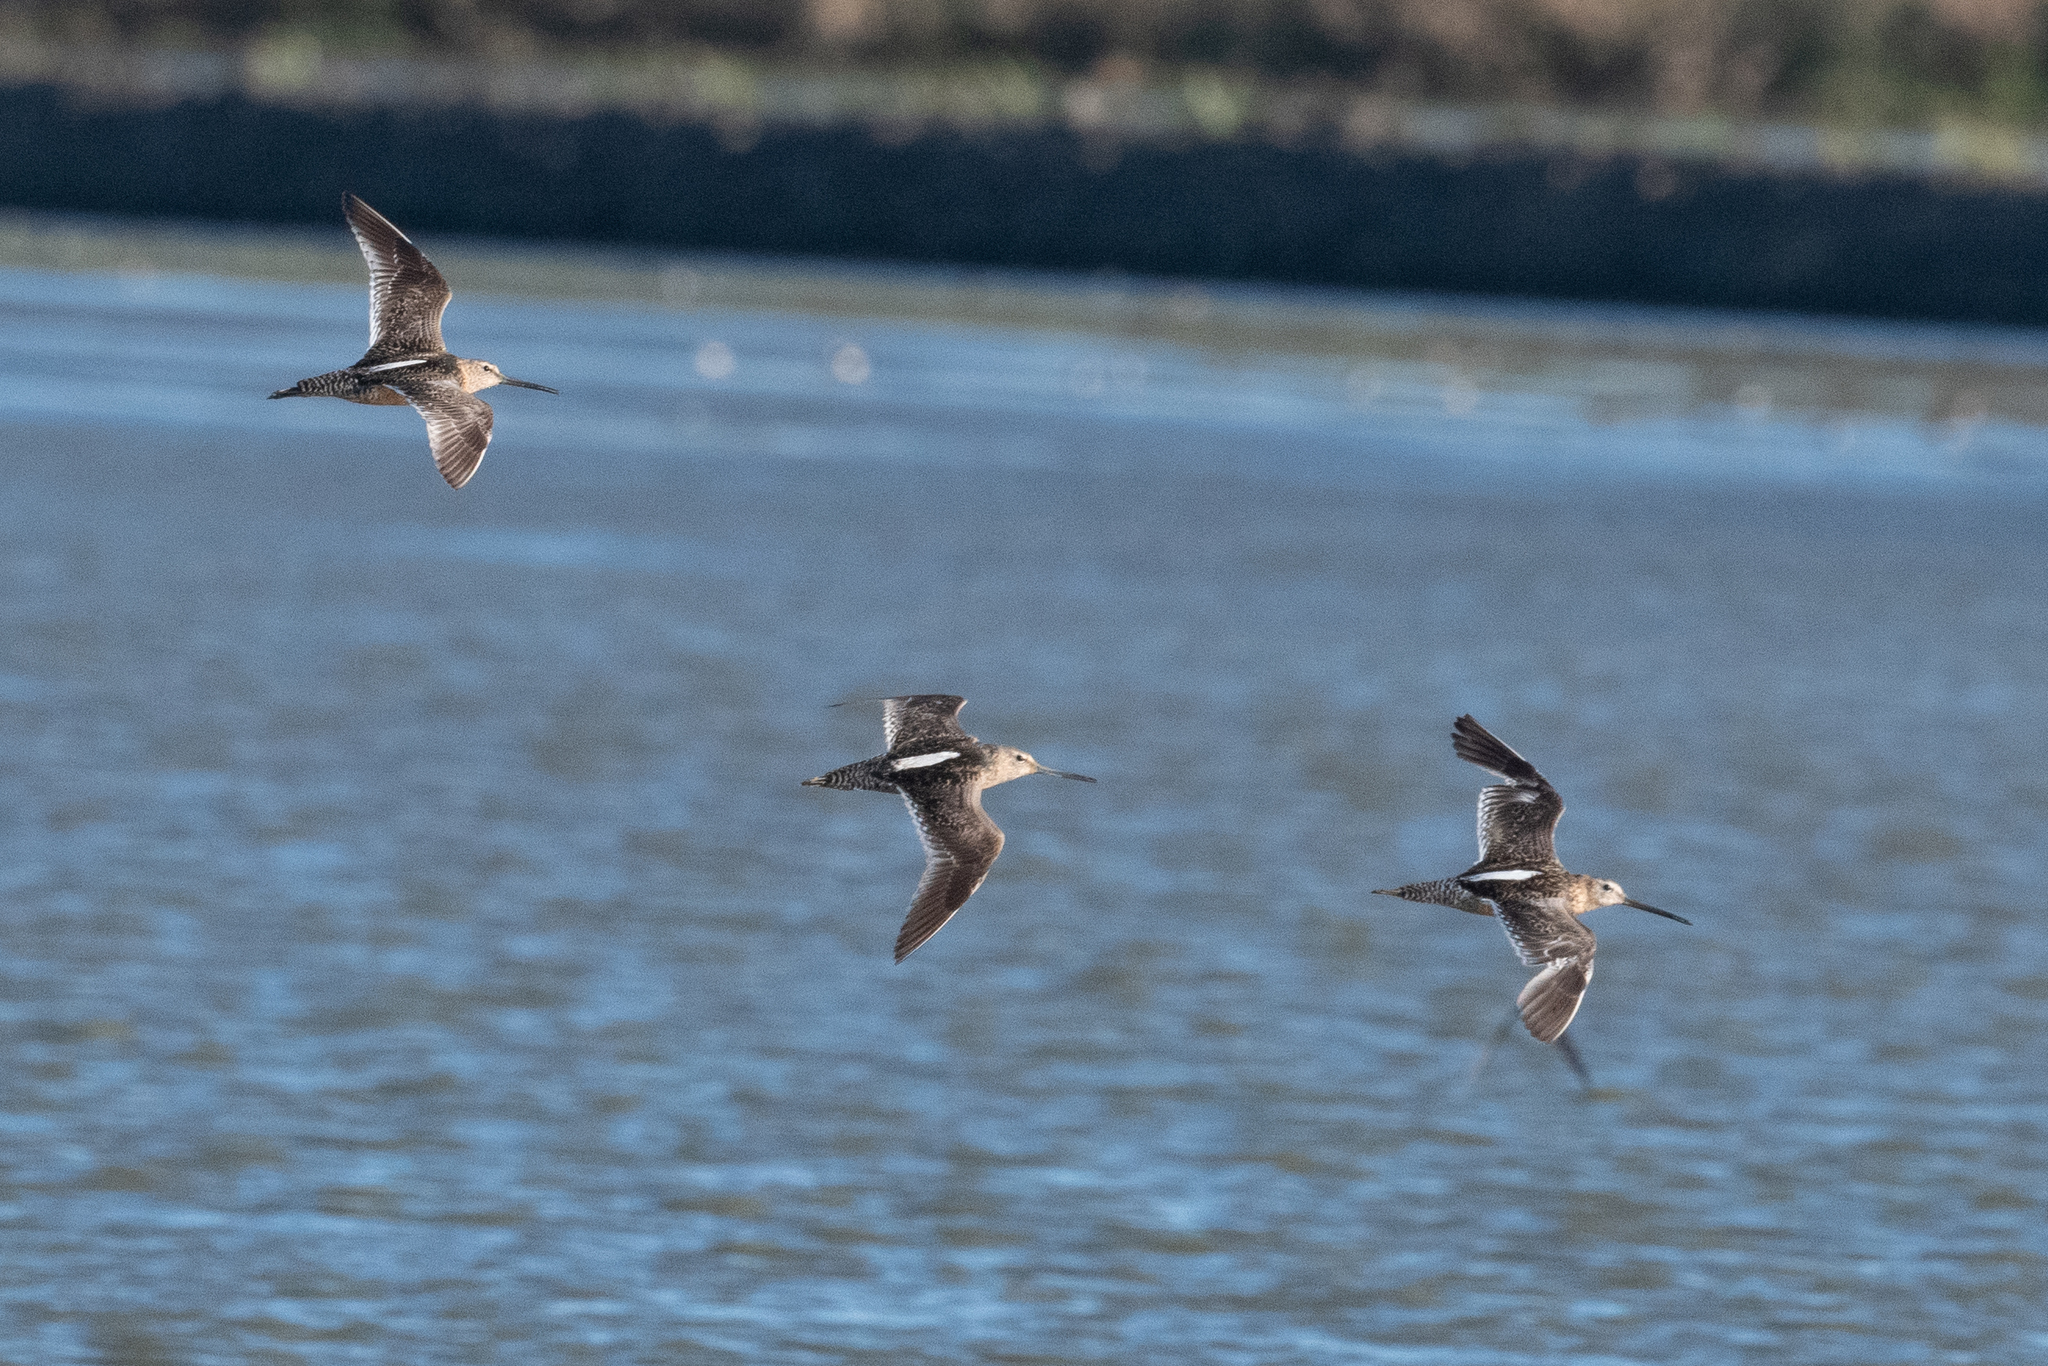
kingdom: Animalia
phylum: Chordata
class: Aves
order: Charadriiformes
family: Scolopacidae
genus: Limnodromus
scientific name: Limnodromus scolopaceus
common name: Long-billed dowitcher
